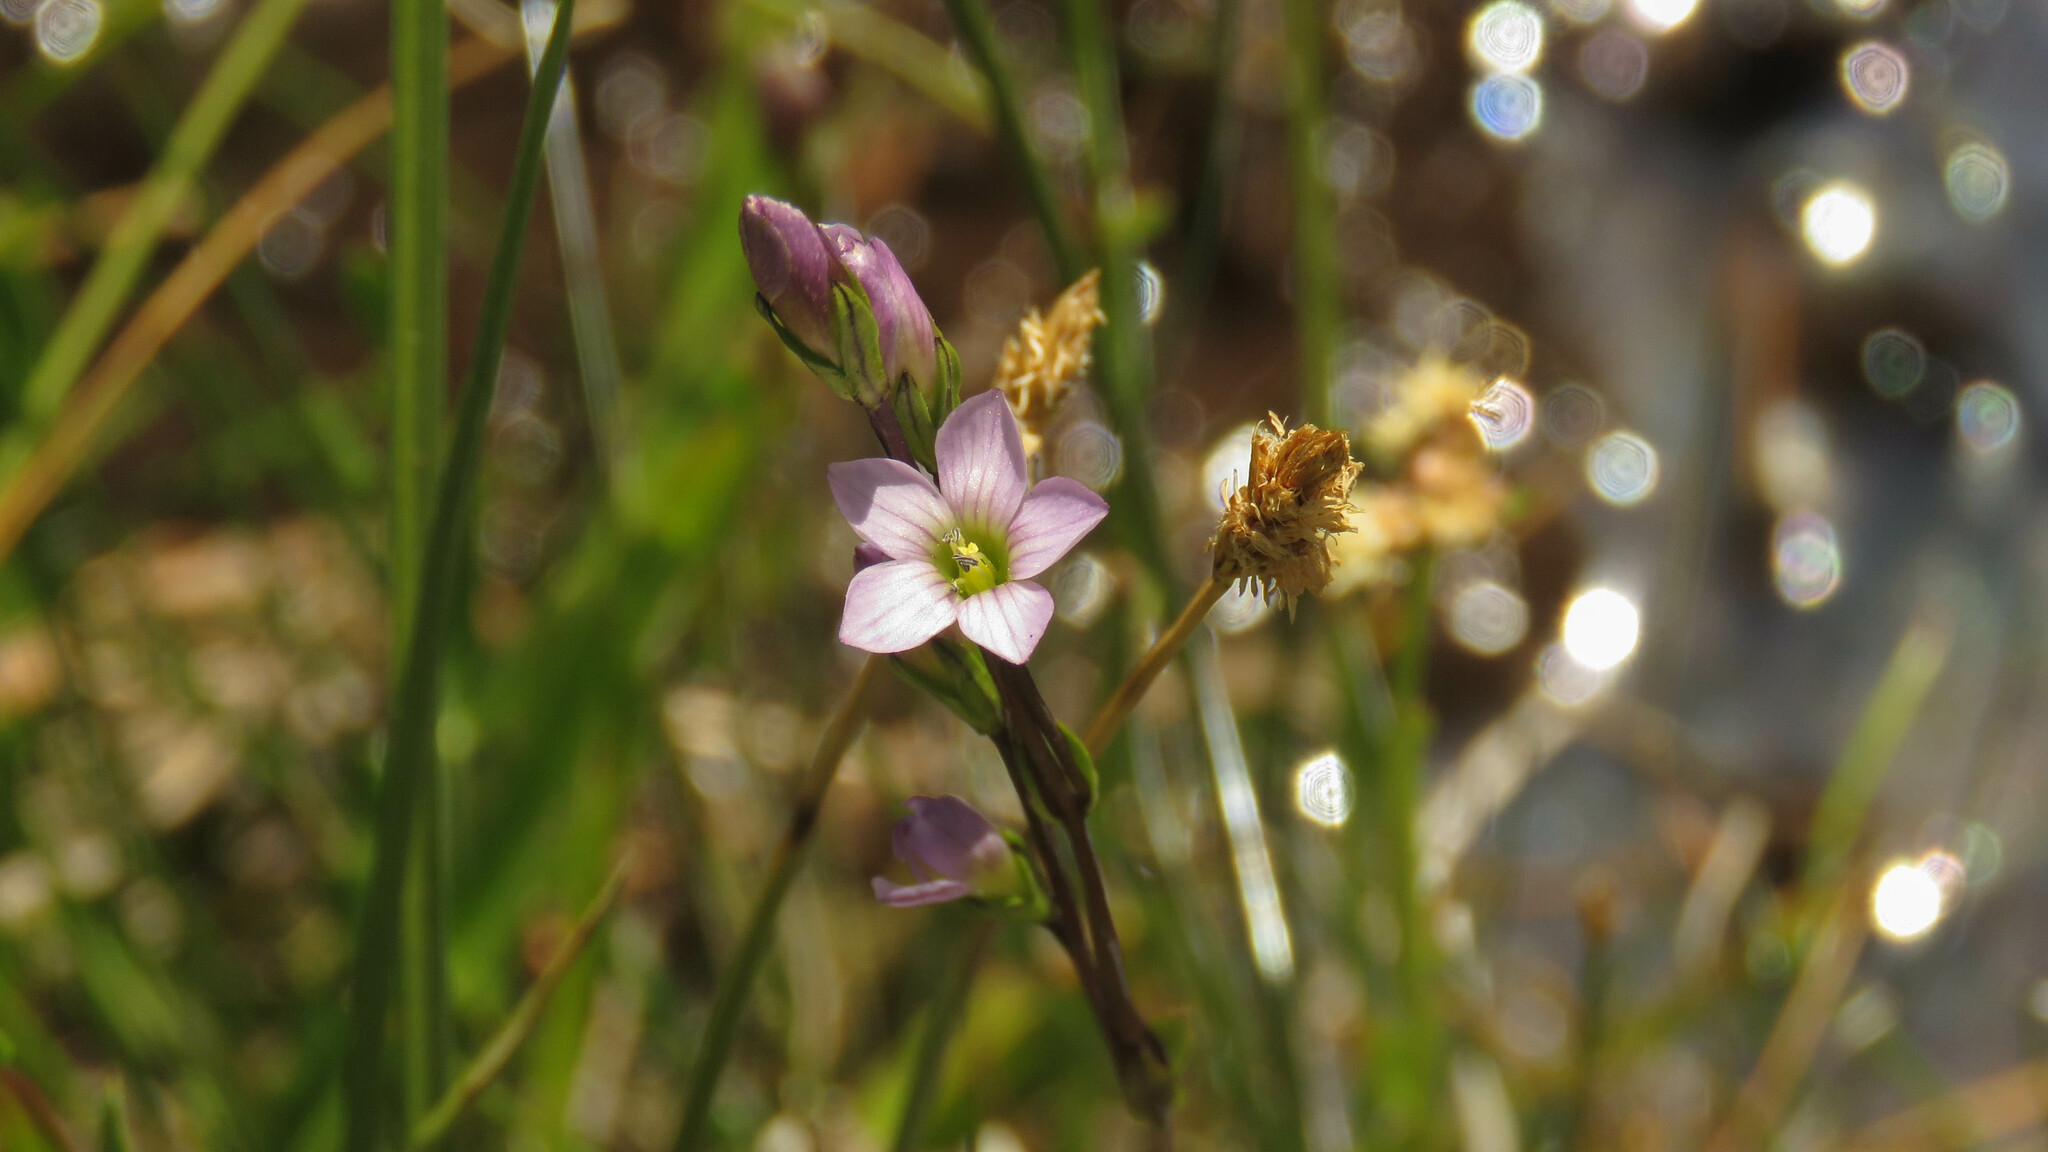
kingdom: Plantae
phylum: Tracheophyta
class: Magnoliopsida
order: Gentianales
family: Gentianaceae
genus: Gentianella
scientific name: Gentianella magellanica
